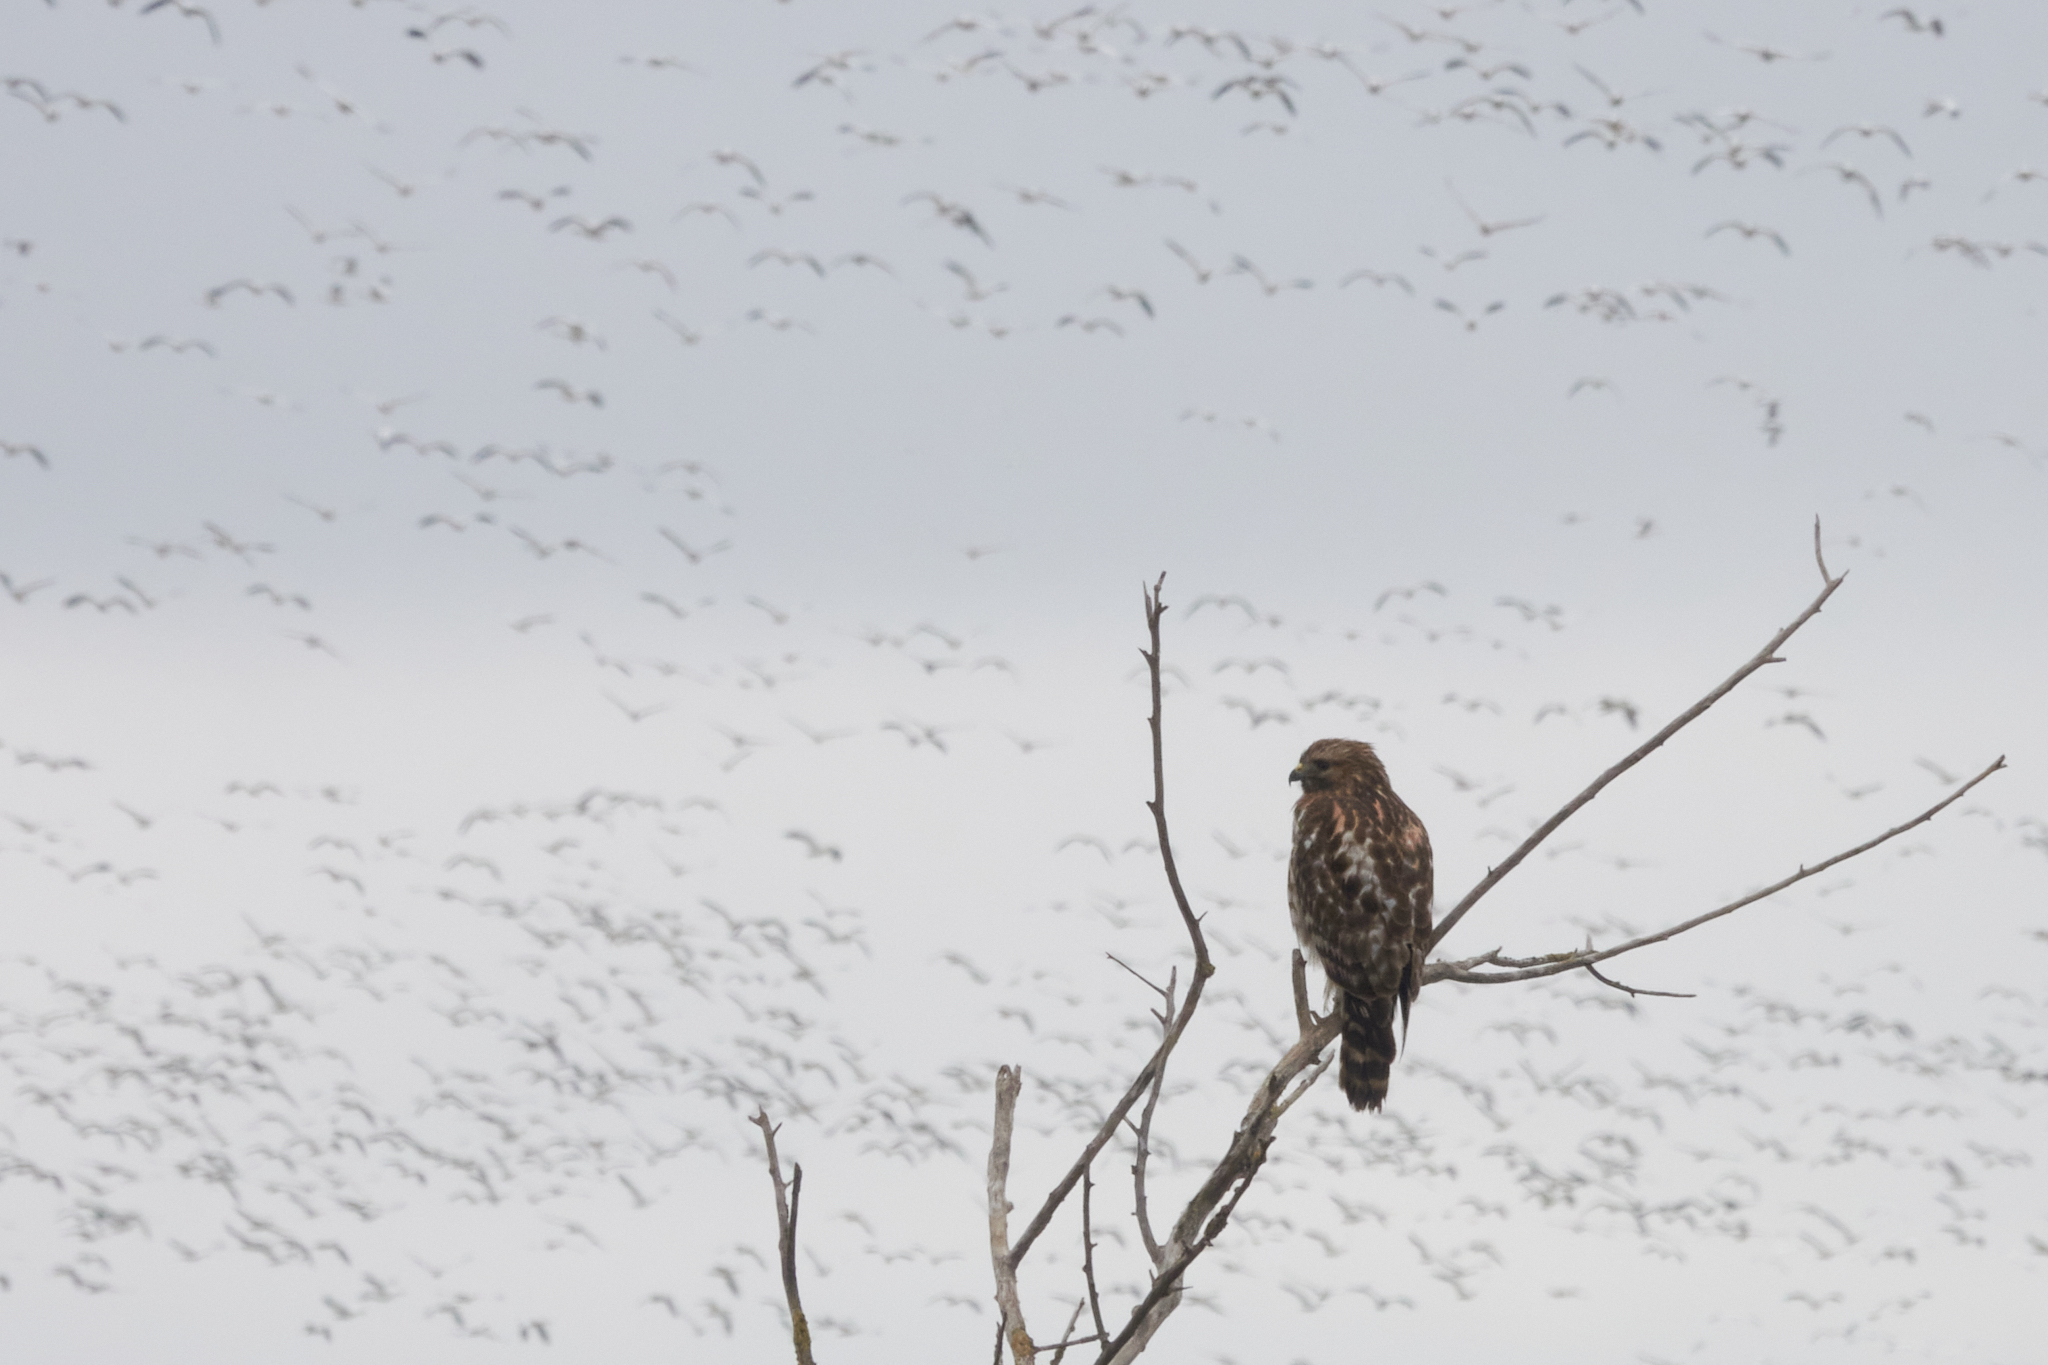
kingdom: Animalia
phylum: Chordata
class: Aves
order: Accipitriformes
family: Accipitridae
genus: Buteo
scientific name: Buteo lineatus
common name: Red-shouldered hawk
